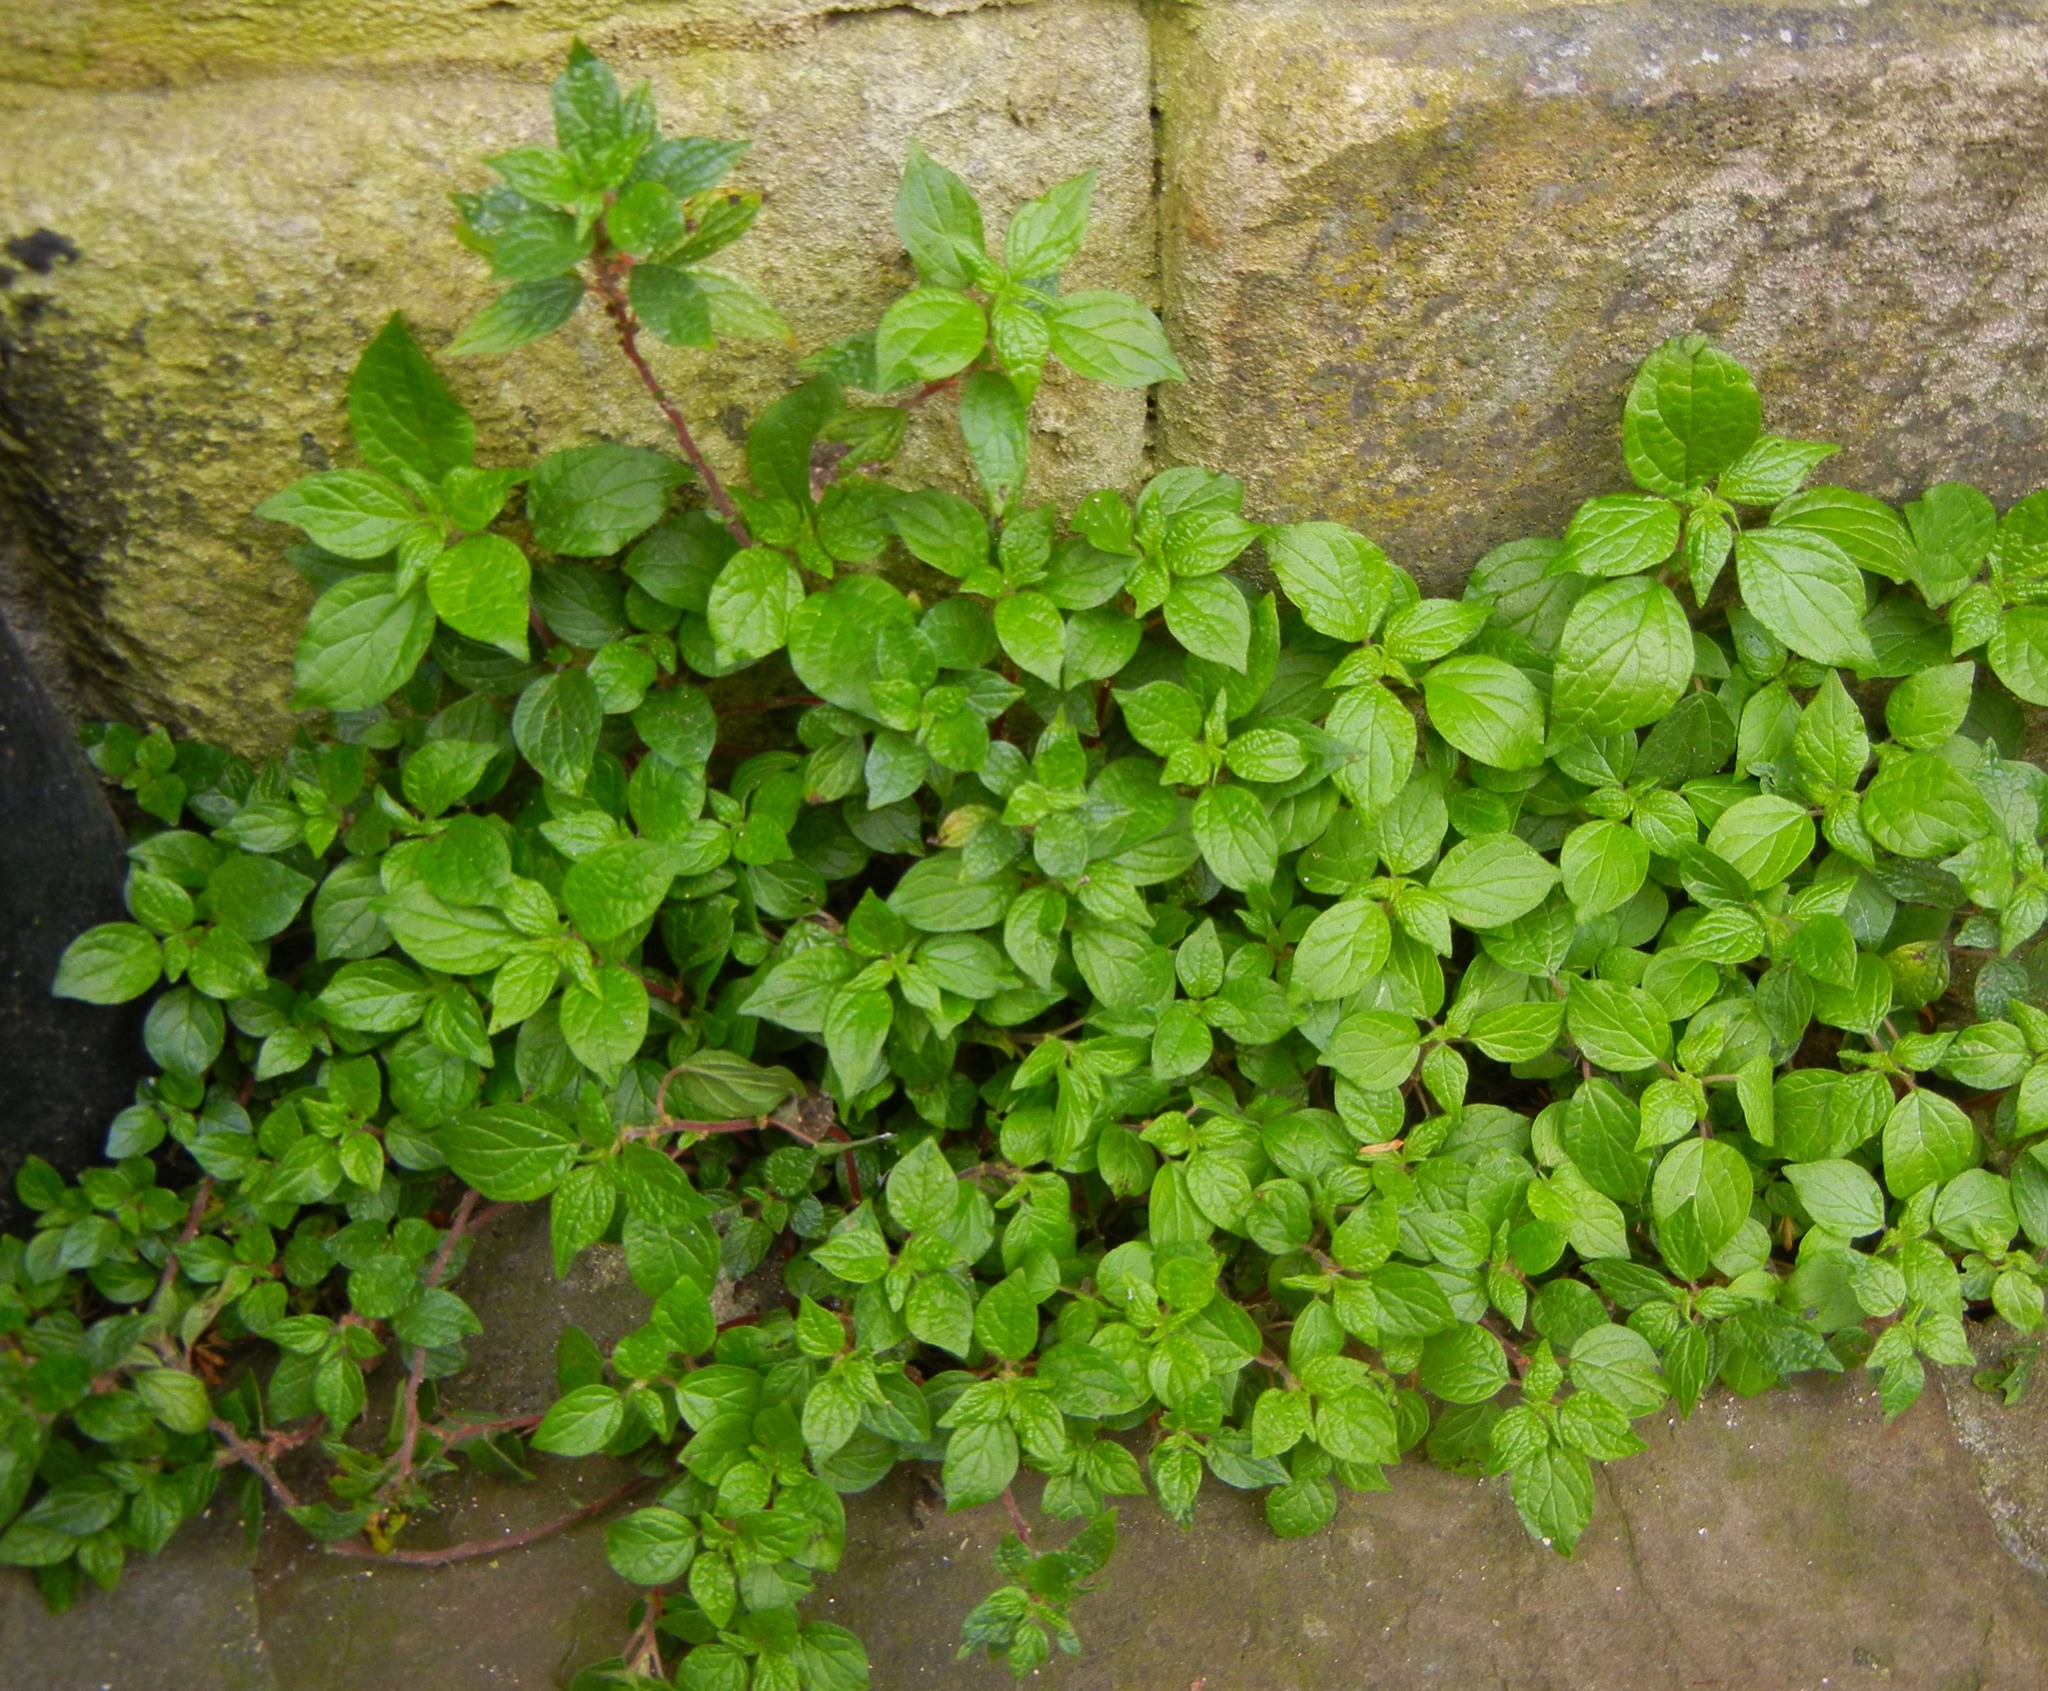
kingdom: Plantae
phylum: Tracheophyta
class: Magnoliopsida
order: Rosales
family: Urticaceae
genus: Parietaria
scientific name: Parietaria judaica
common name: Pellitory-of-the-wall
